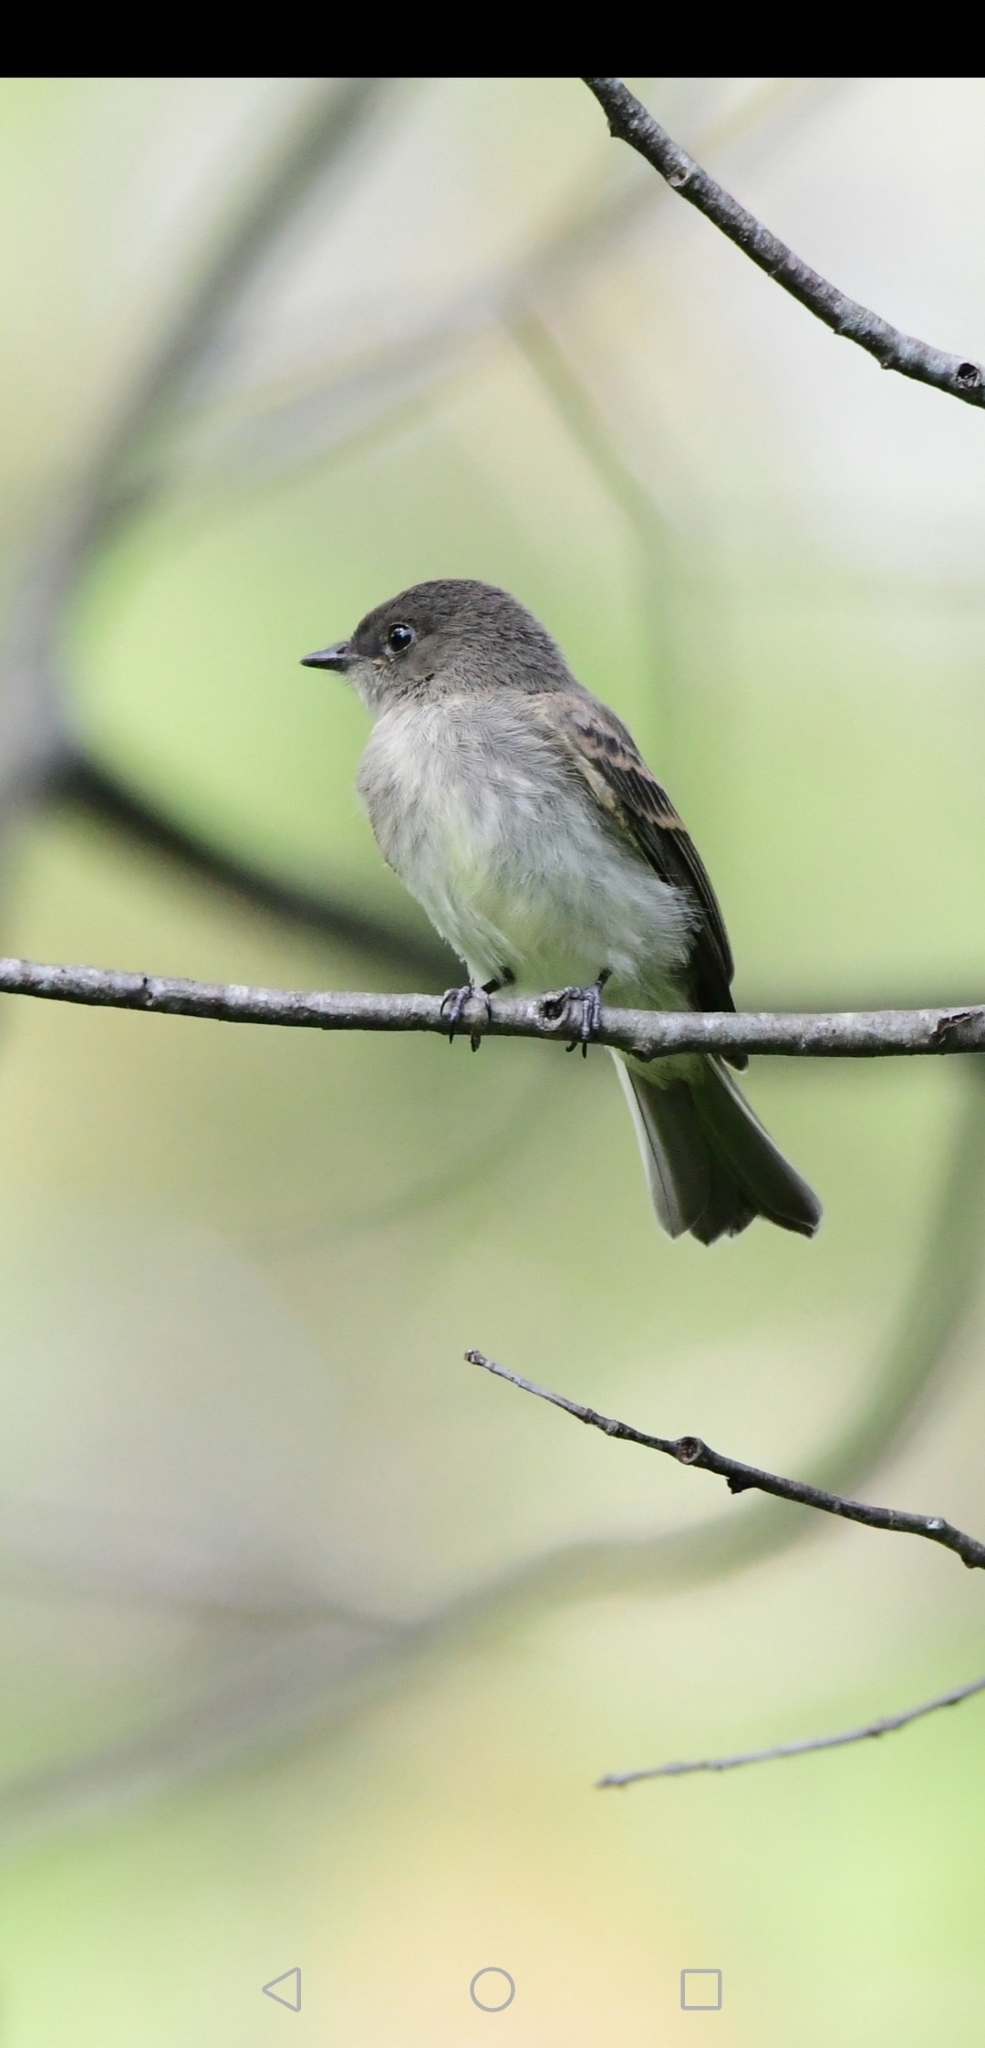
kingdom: Animalia
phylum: Chordata
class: Aves
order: Passeriformes
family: Tyrannidae
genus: Sayornis
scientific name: Sayornis phoebe
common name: Eastern phoebe
